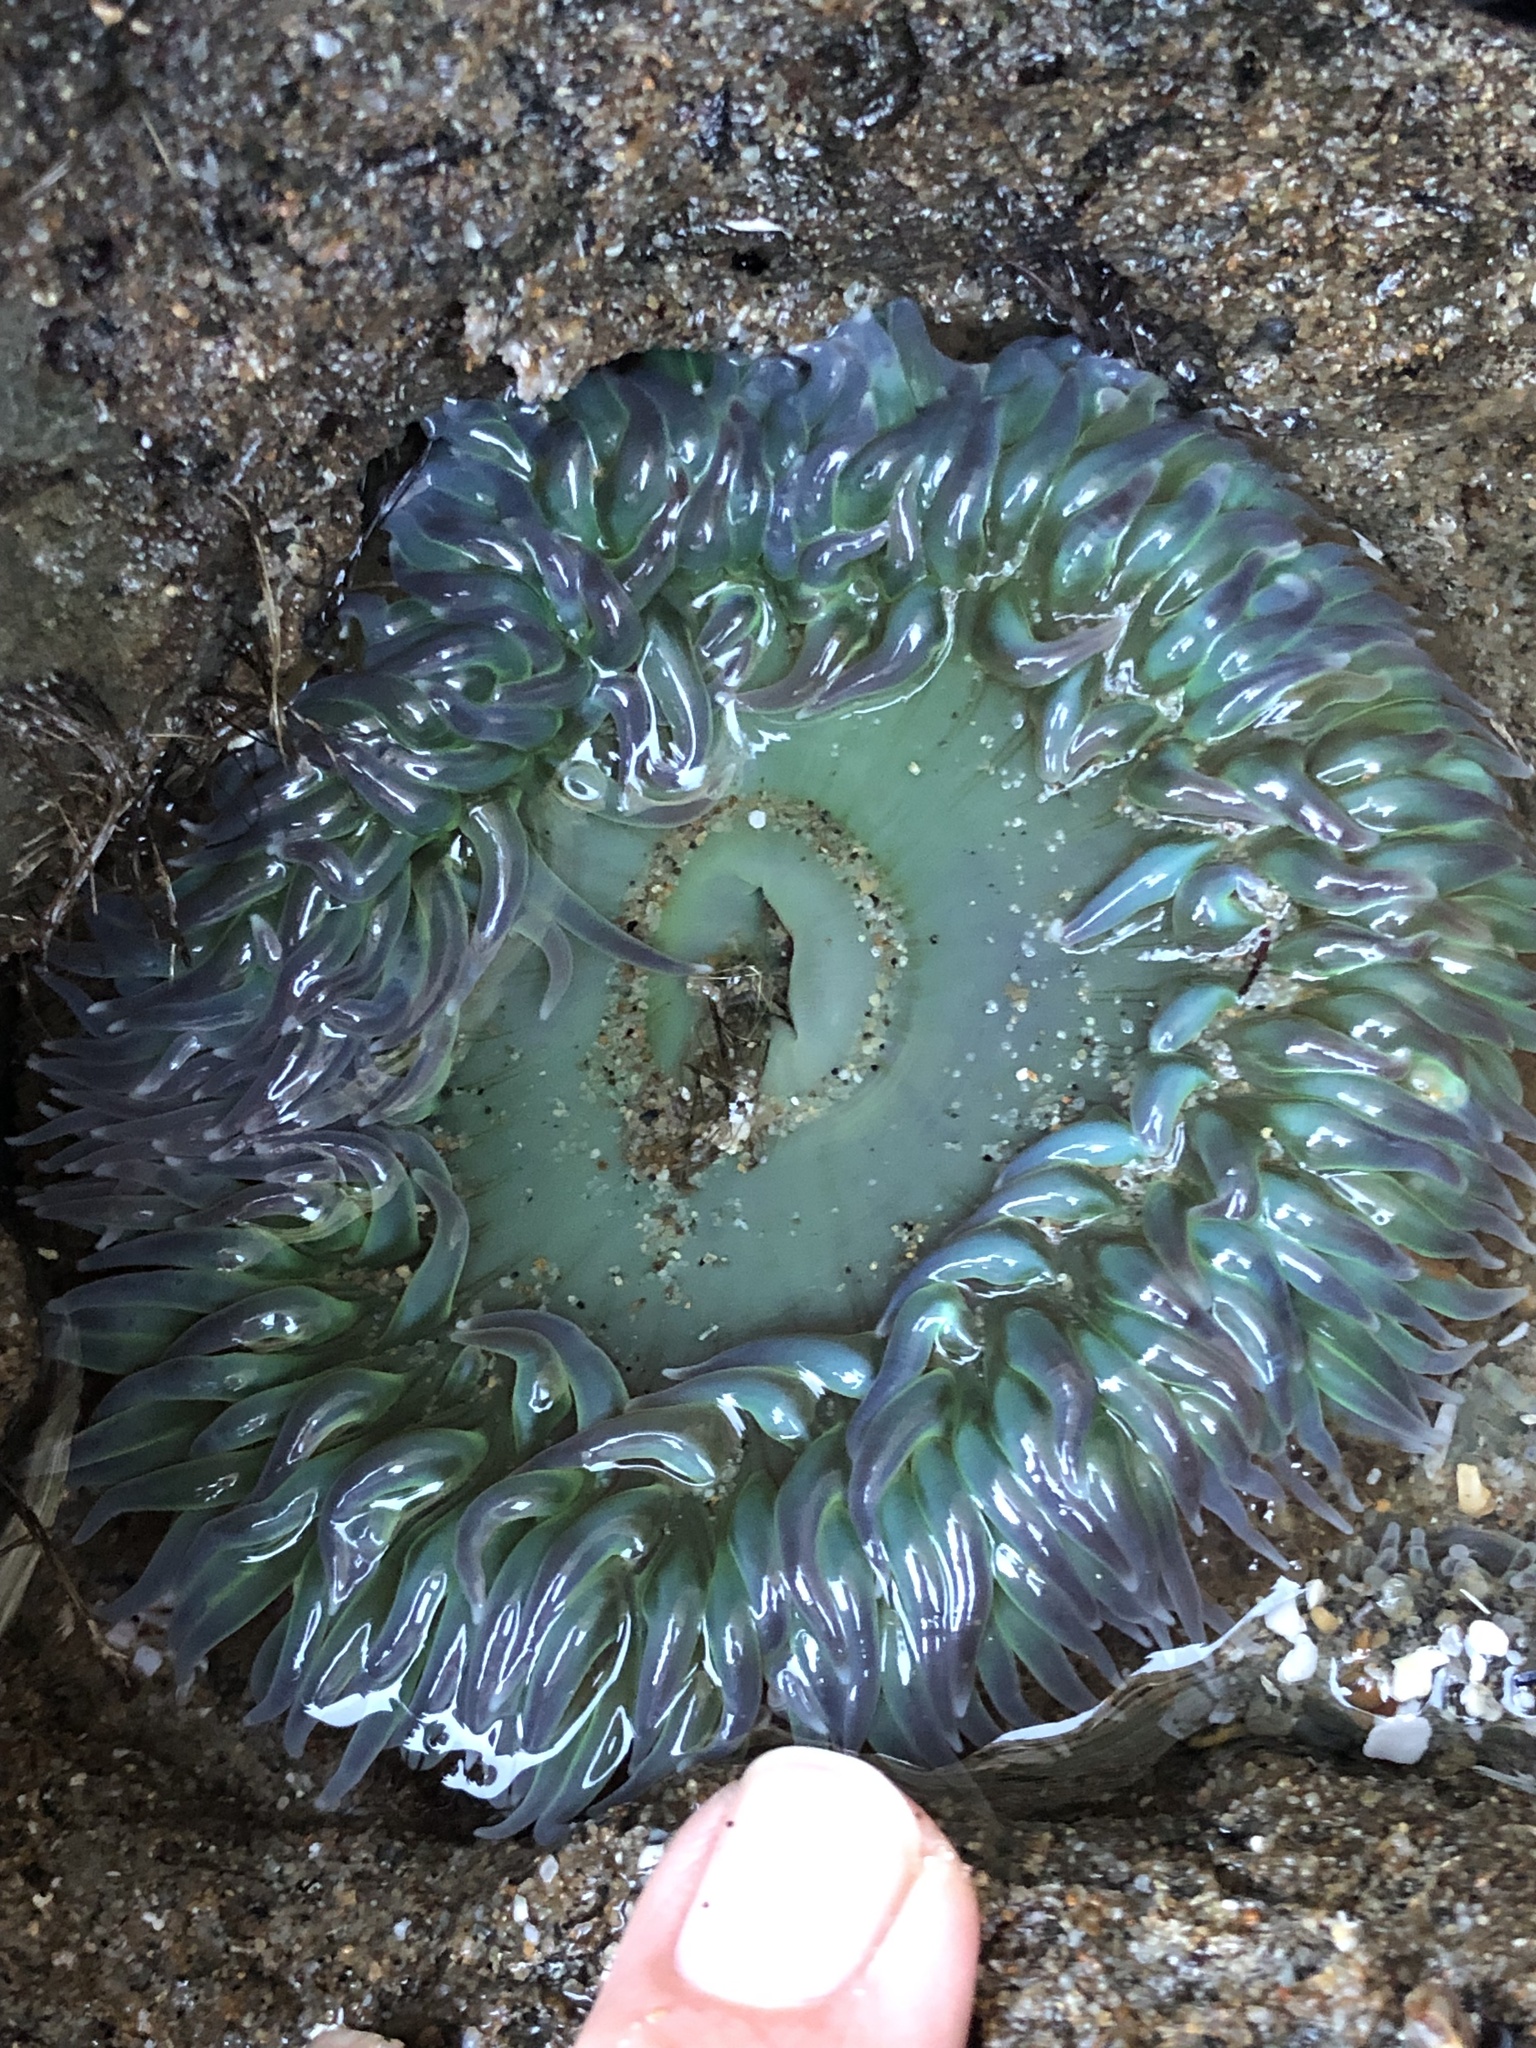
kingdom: Animalia
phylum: Cnidaria
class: Anthozoa
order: Actiniaria
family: Actiniidae
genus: Anthopleura
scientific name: Anthopleura xanthogrammica
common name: Giant green anemone
